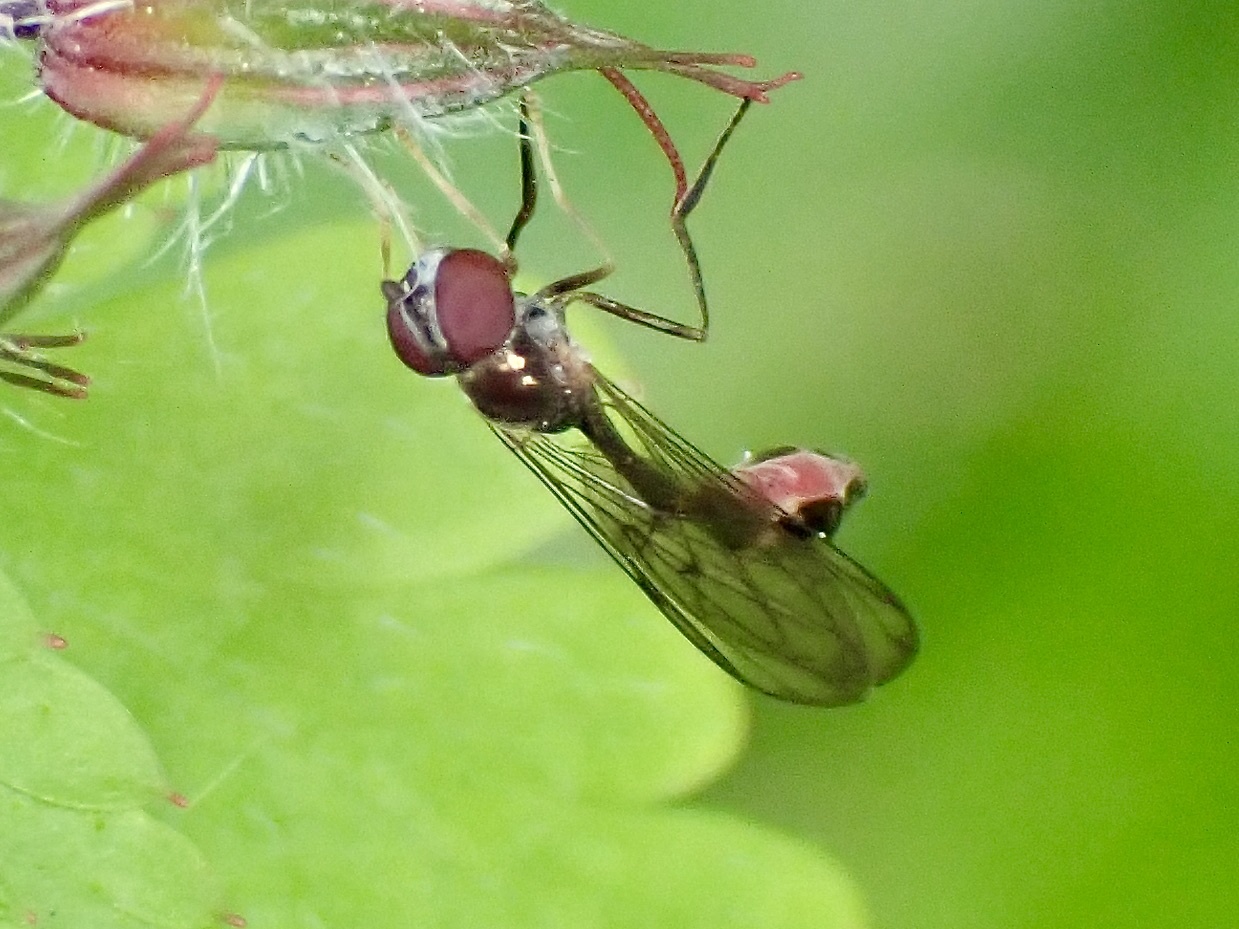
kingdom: Animalia
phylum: Arthropoda
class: Insecta
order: Diptera
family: Syrphidae
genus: Baccha
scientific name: Baccha elongata
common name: Common dainty
